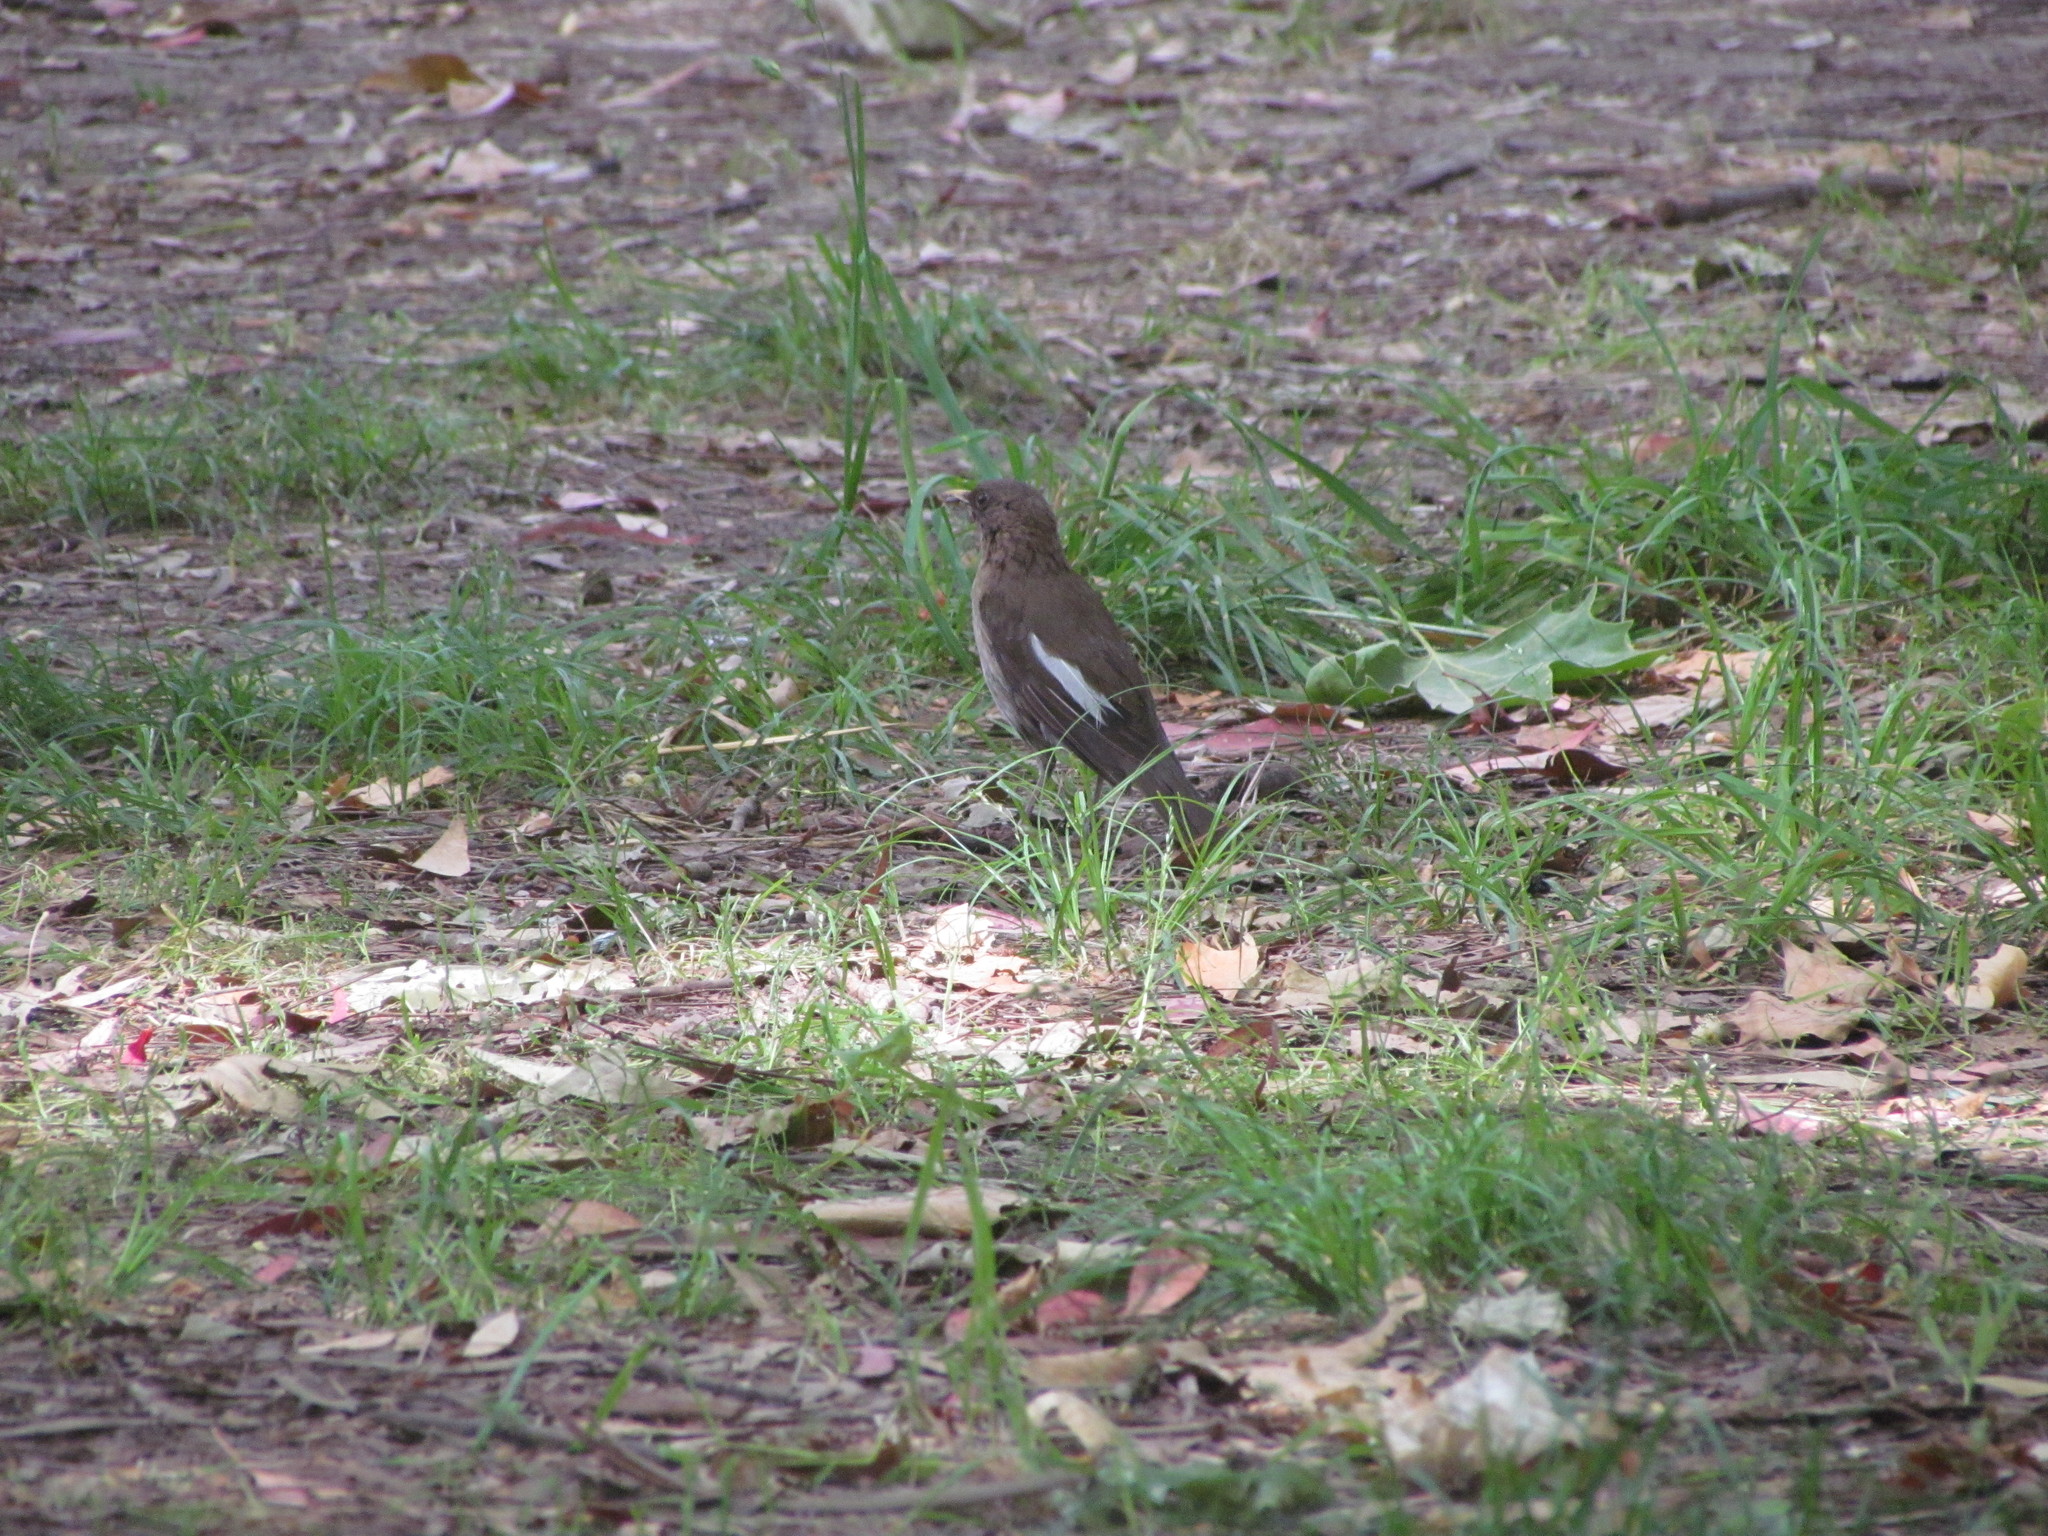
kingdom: Animalia
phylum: Chordata
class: Aves
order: Passeriformes
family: Turdidae
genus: Turdus
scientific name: Turdus amaurochalinus
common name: Creamy-bellied thrush
